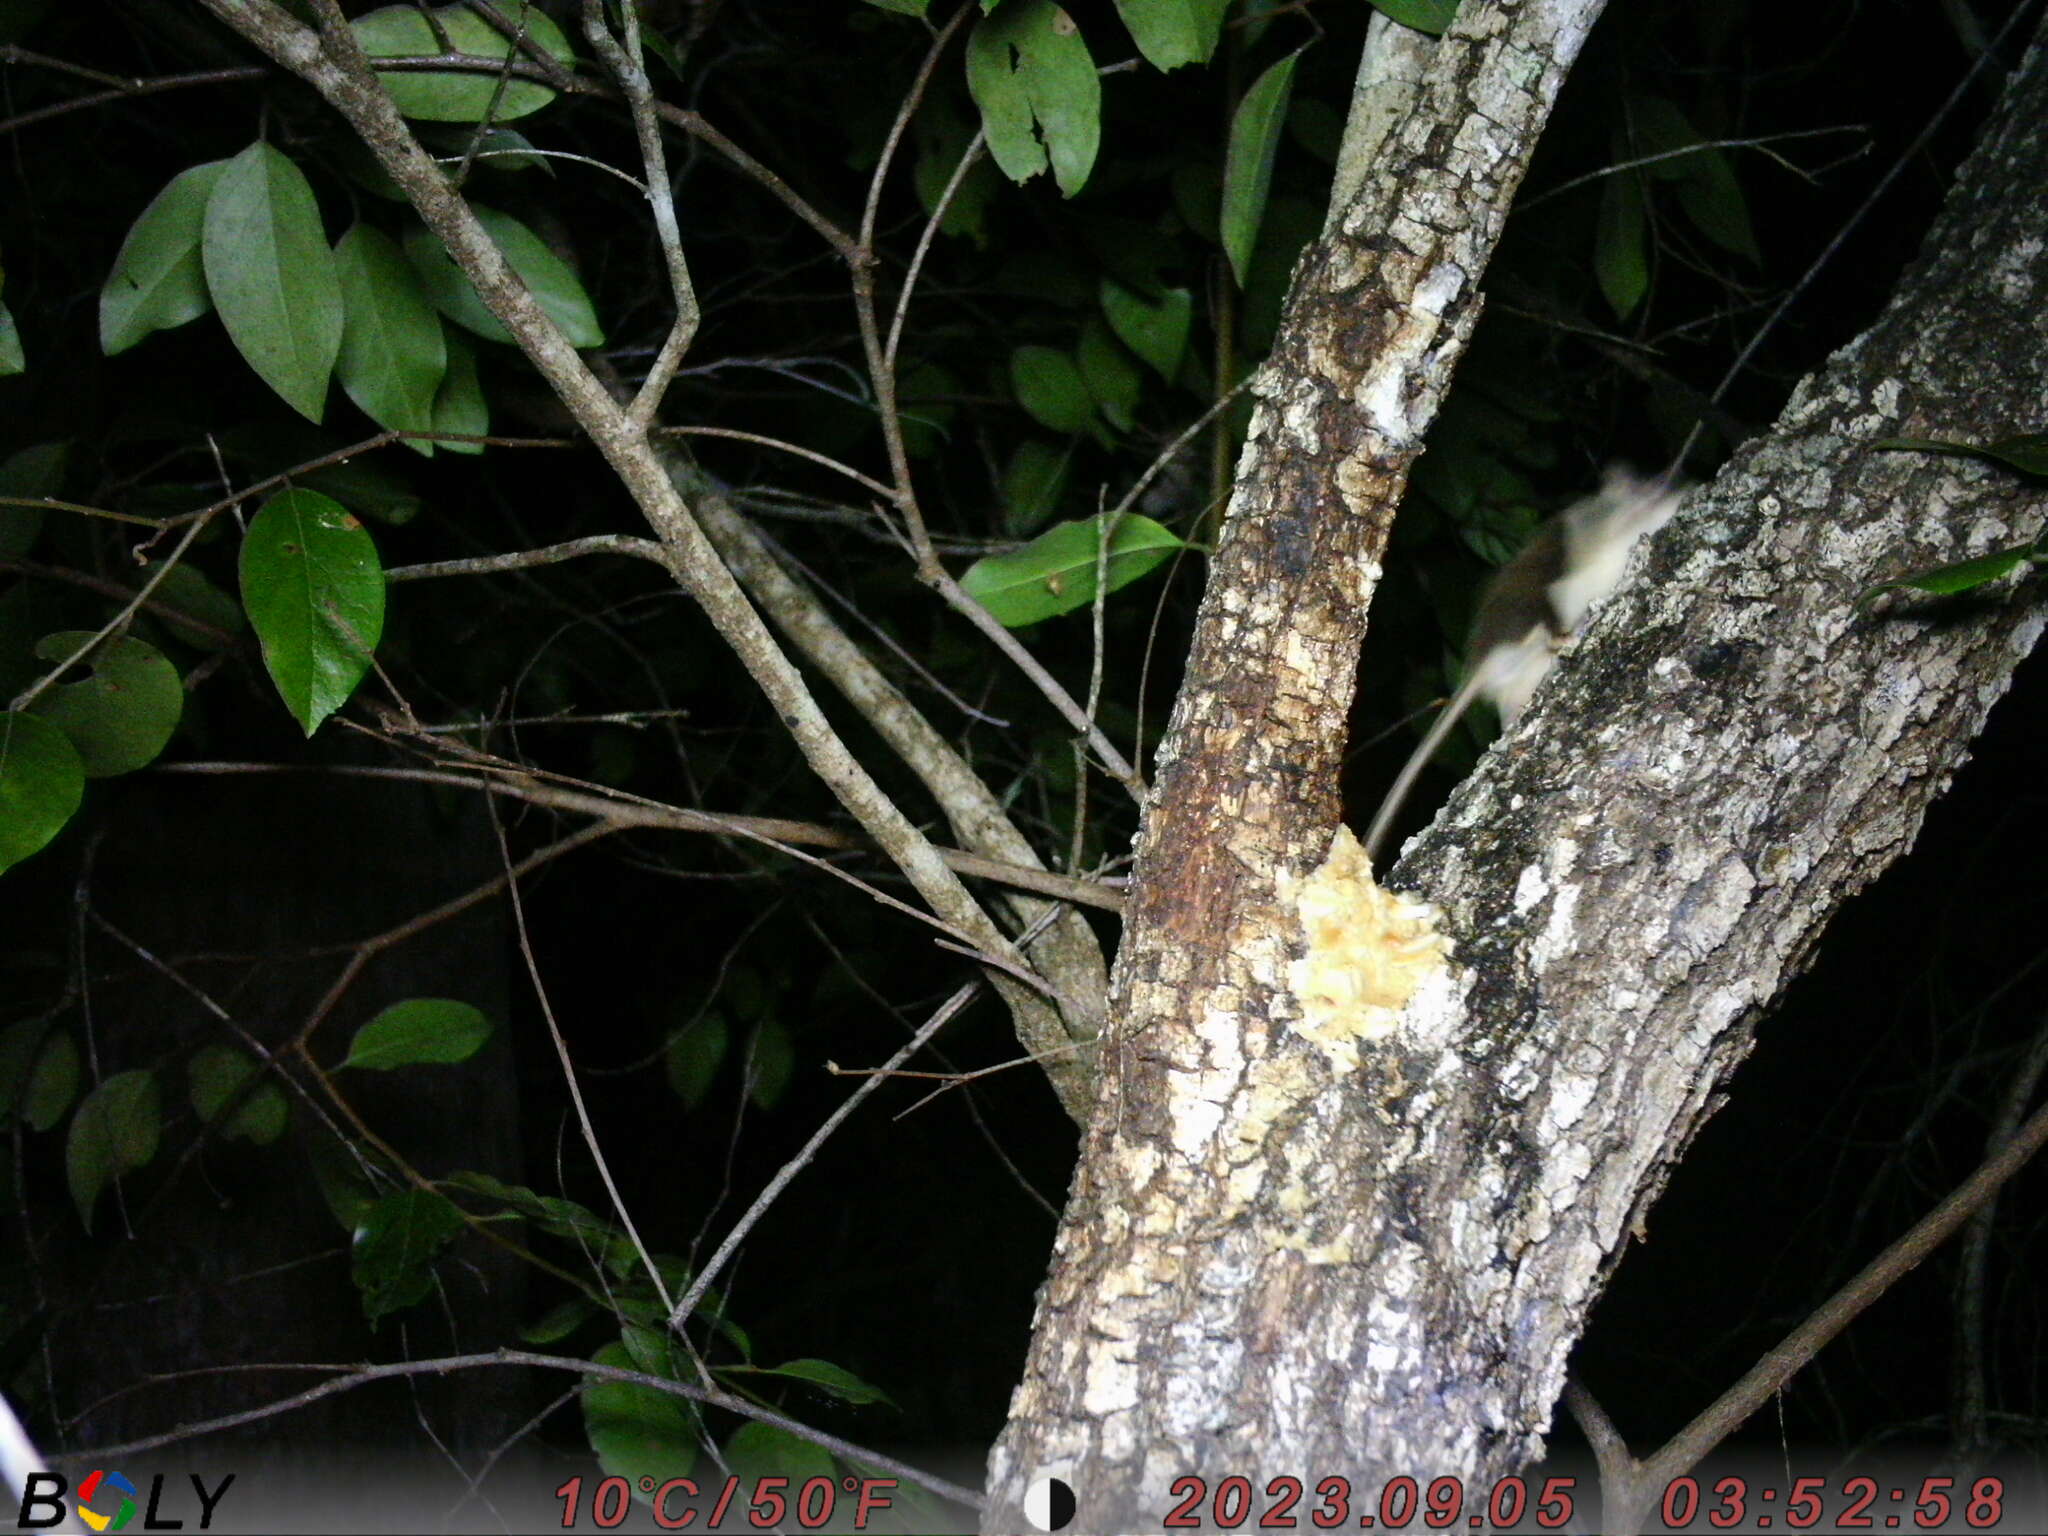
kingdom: Animalia
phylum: Chordata
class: Mammalia
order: Diprotodontia
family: Acrobatidae
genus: Acrobates
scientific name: Acrobates pygmaeus
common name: Feathertail glider
